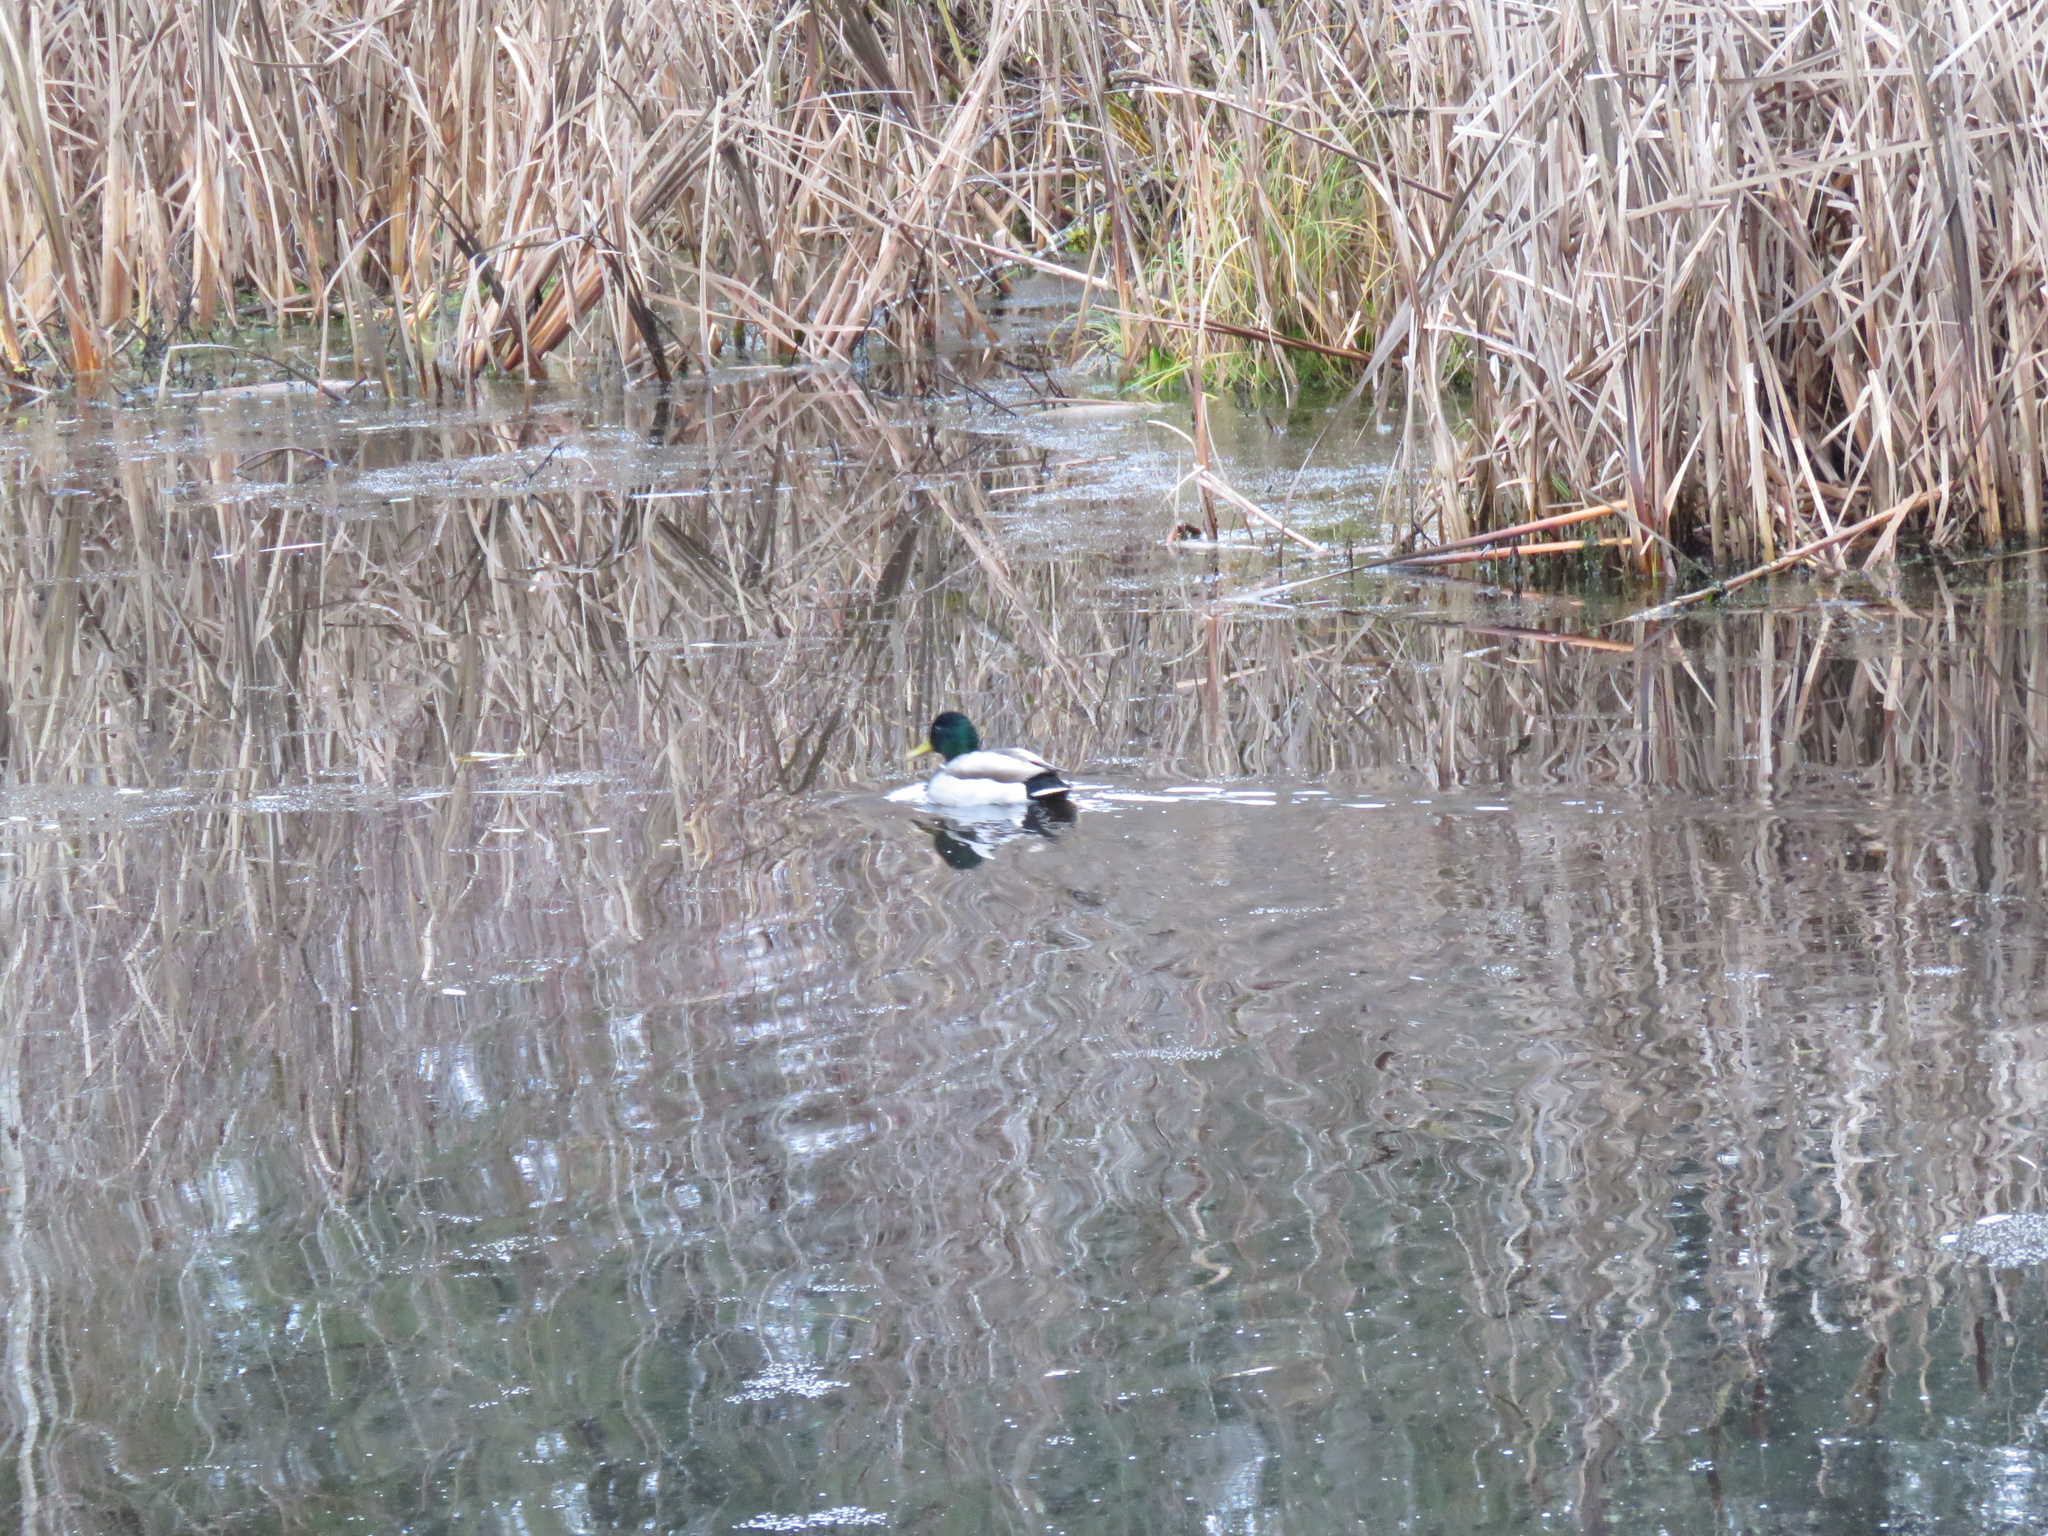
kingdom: Animalia
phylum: Chordata
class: Aves
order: Anseriformes
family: Anatidae
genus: Anas
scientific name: Anas platyrhynchos
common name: Mallard
